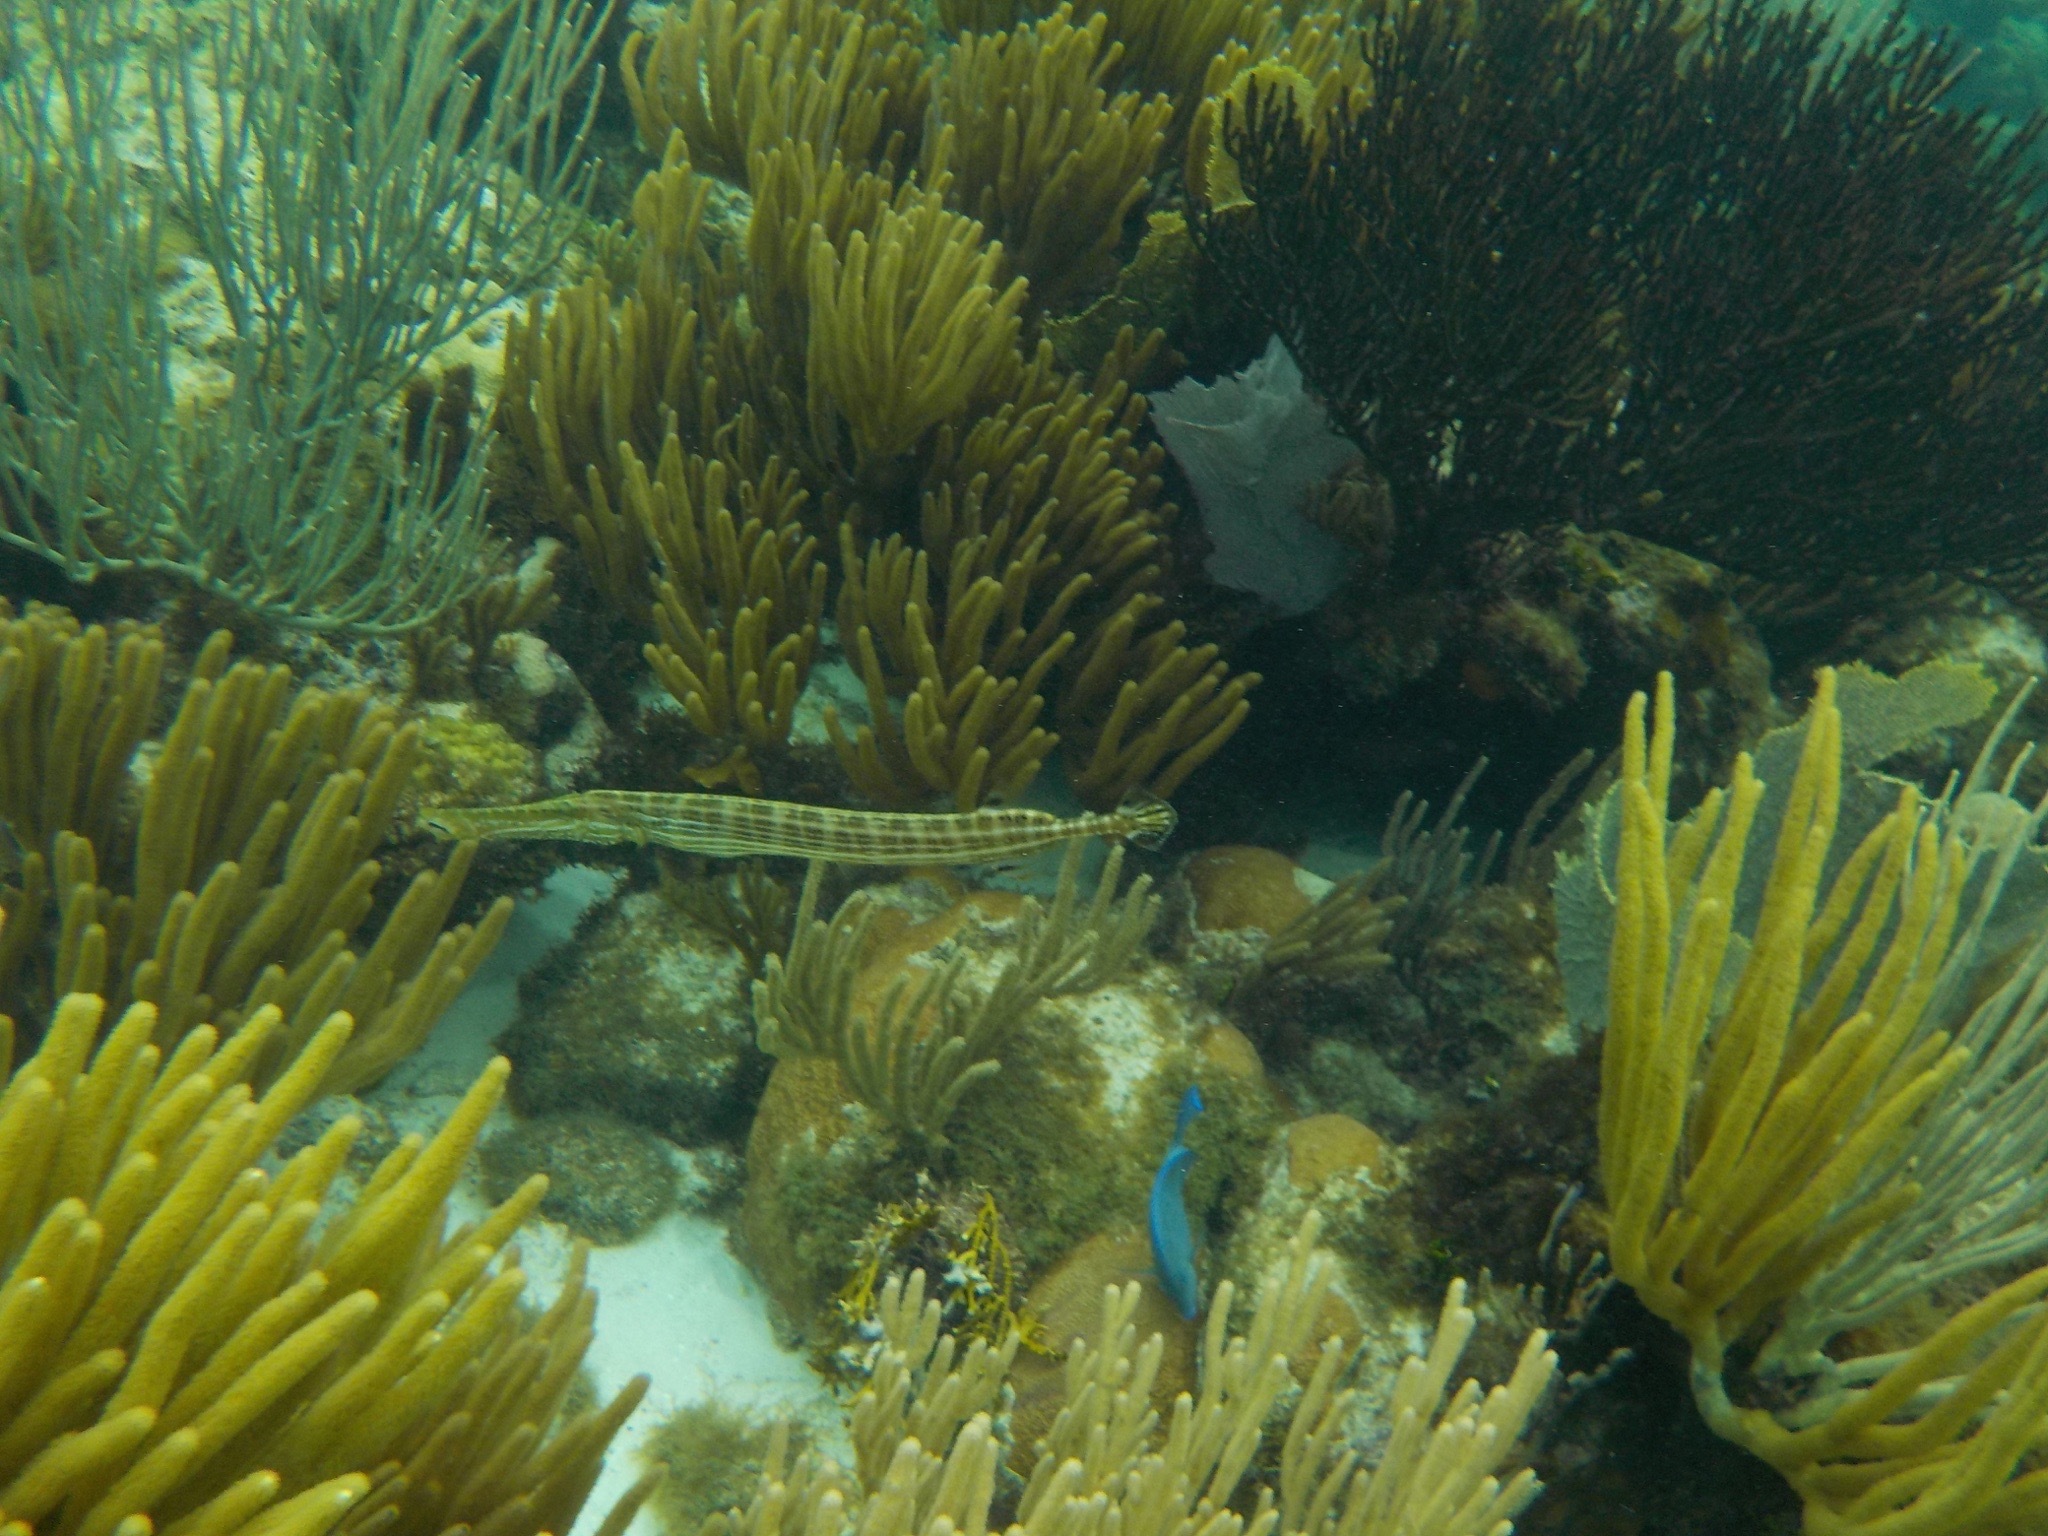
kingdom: Animalia
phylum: Chordata
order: Syngnathiformes
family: Aulostomidae
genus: Aulostomus
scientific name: Aulostomus maculatus
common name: West atlantic trumpetfish
